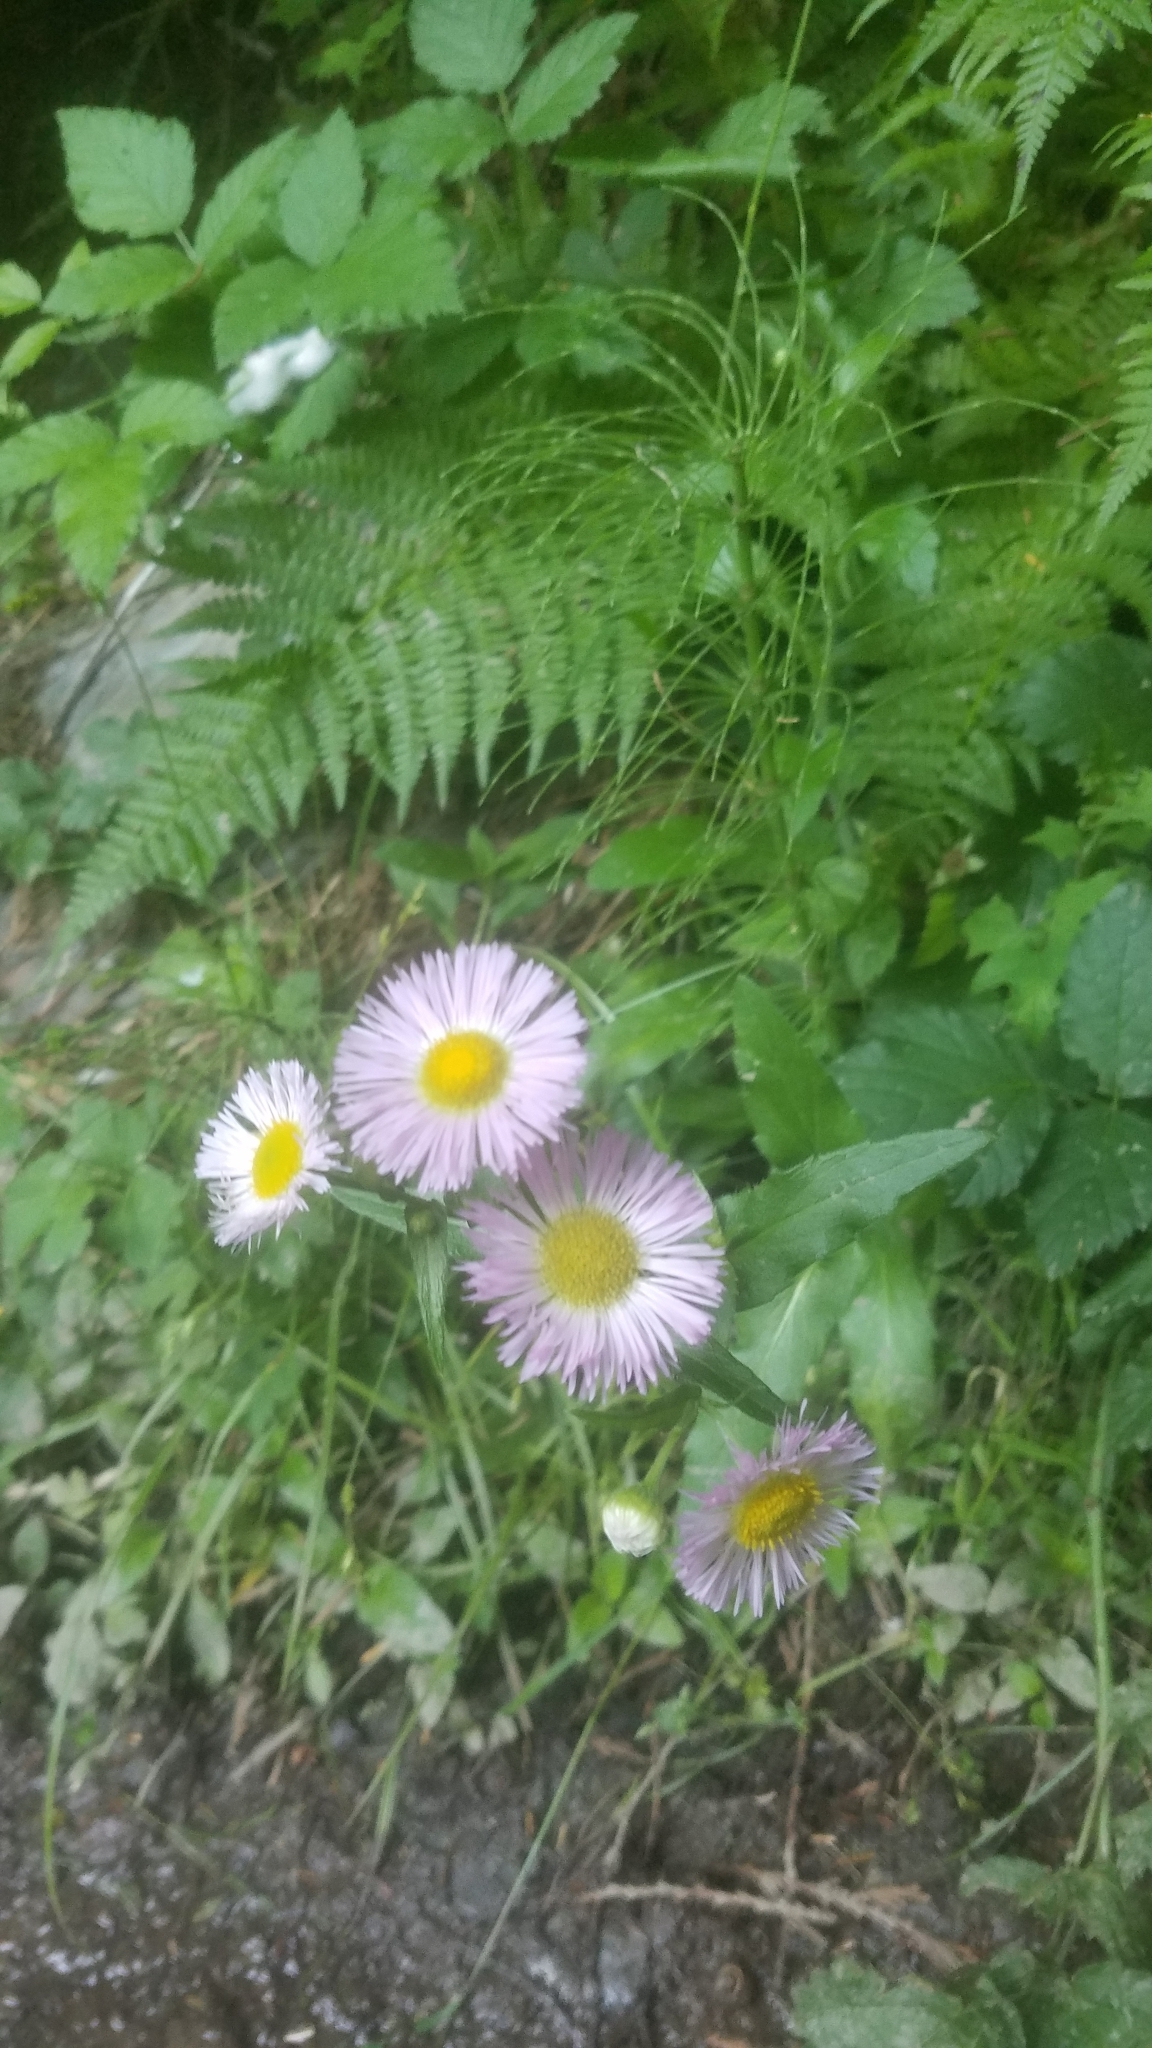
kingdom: Plantae
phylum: Tracheophyta
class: Magnoliopsida
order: Asterales
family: Asteraceae
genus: Erigeron
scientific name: Erigeron philadelphicus
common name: Robin's-plantain
